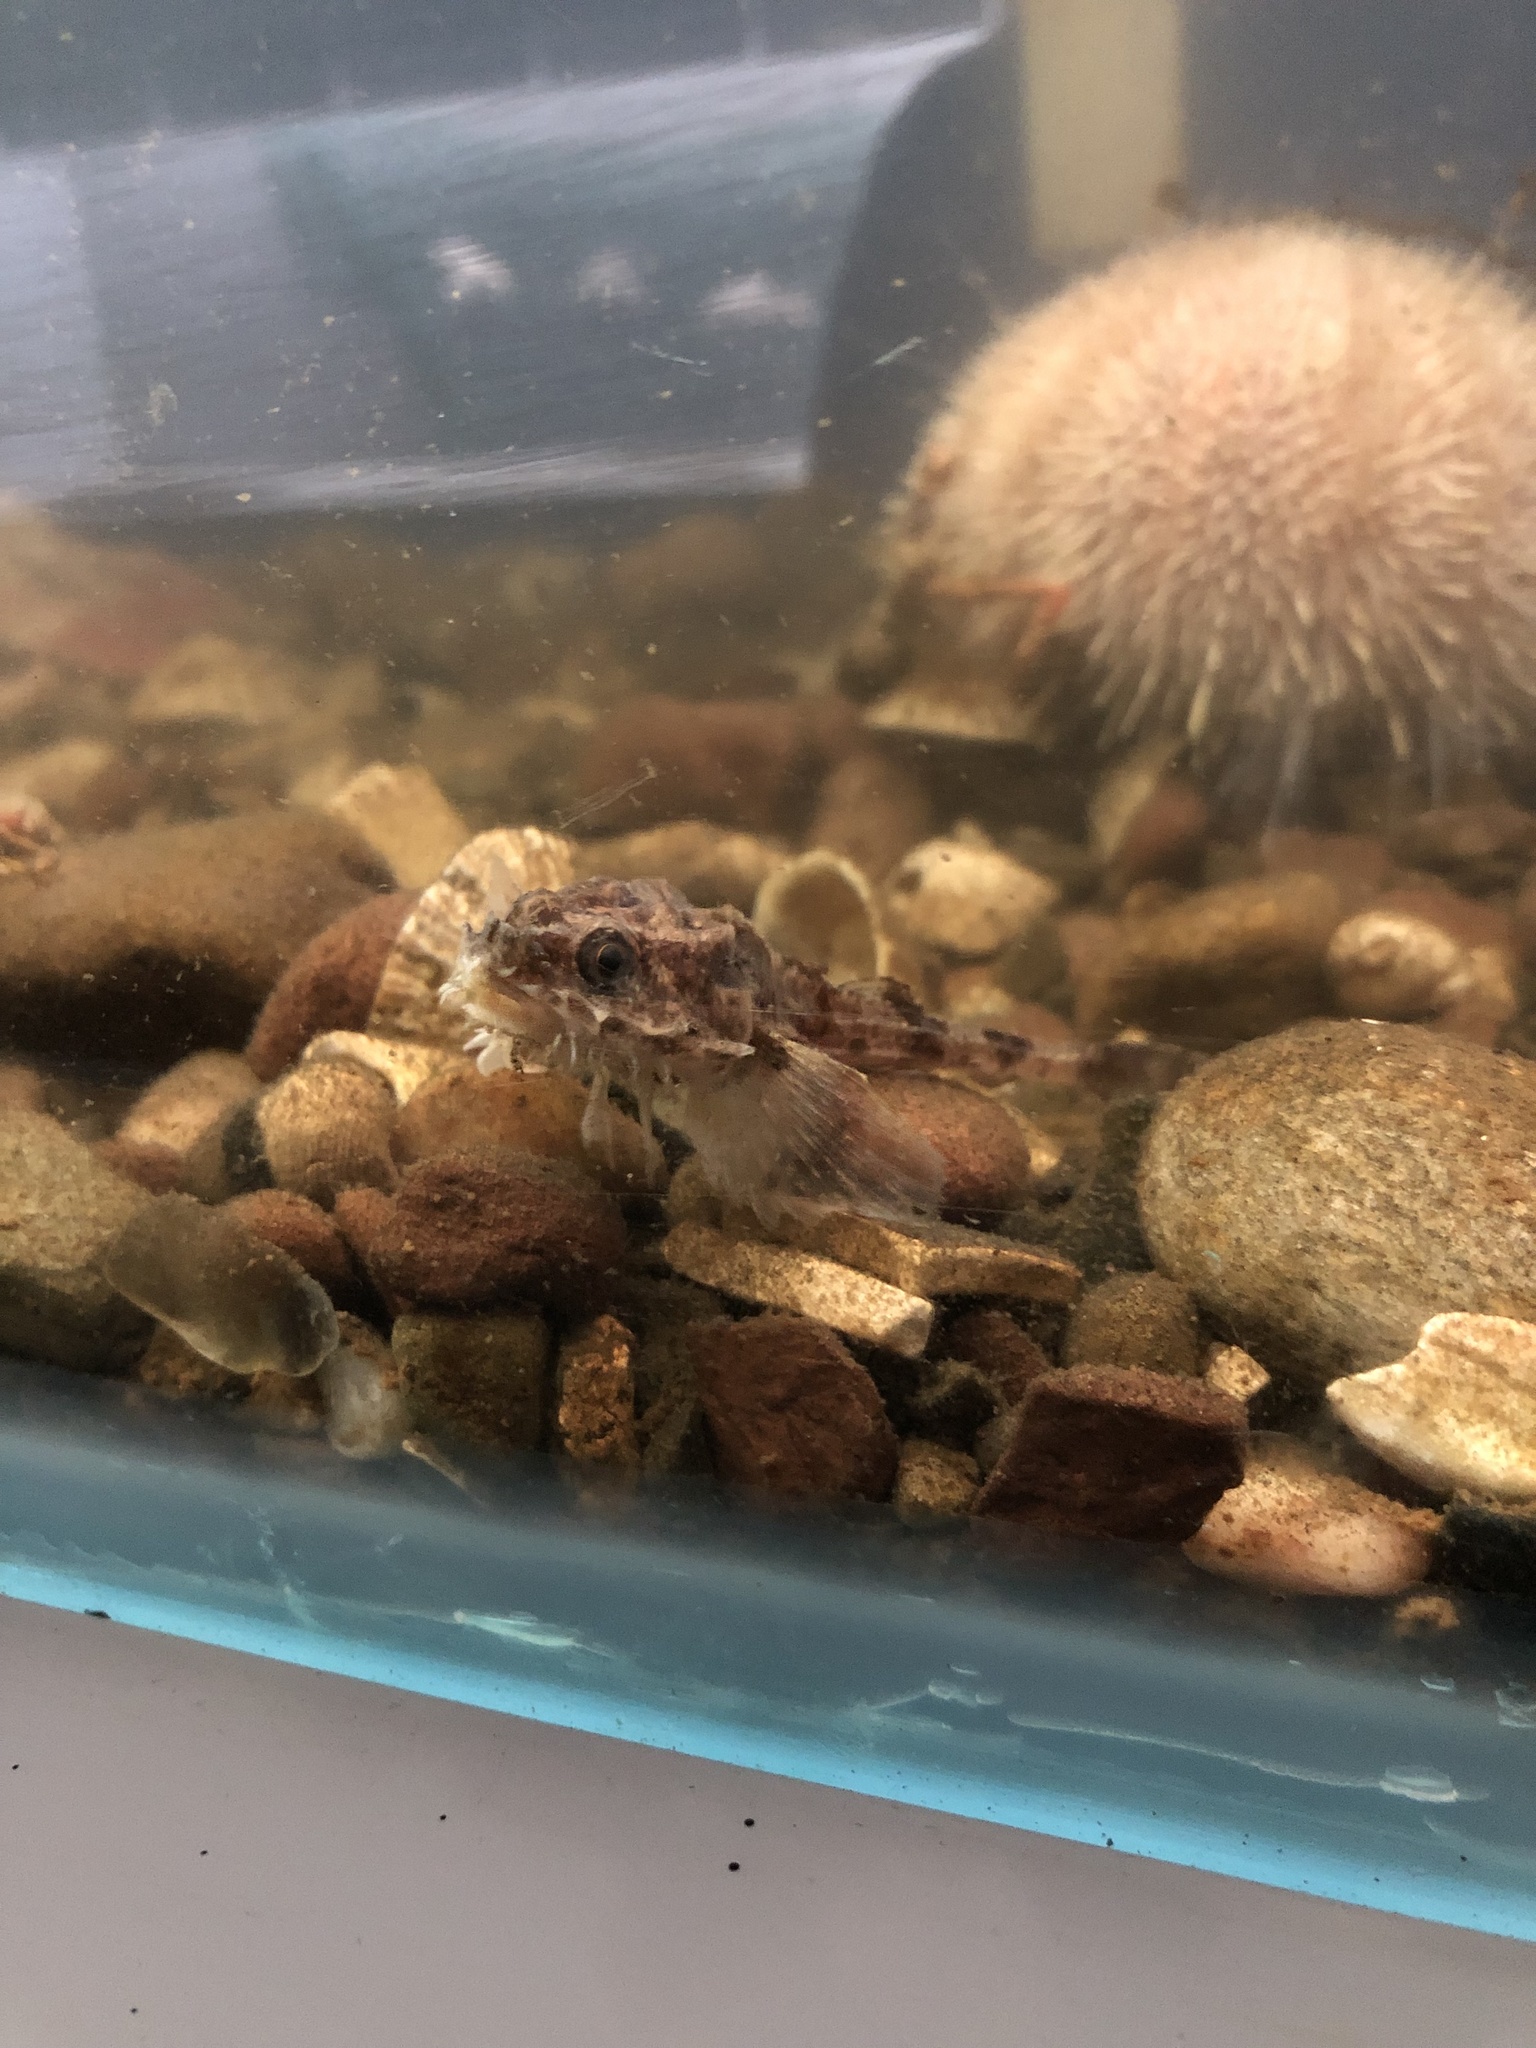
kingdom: Animalia
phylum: Chordata
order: Scorpaeniformes
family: Agonidae
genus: Agonus
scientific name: Agonus cataphractus
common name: Pogge
